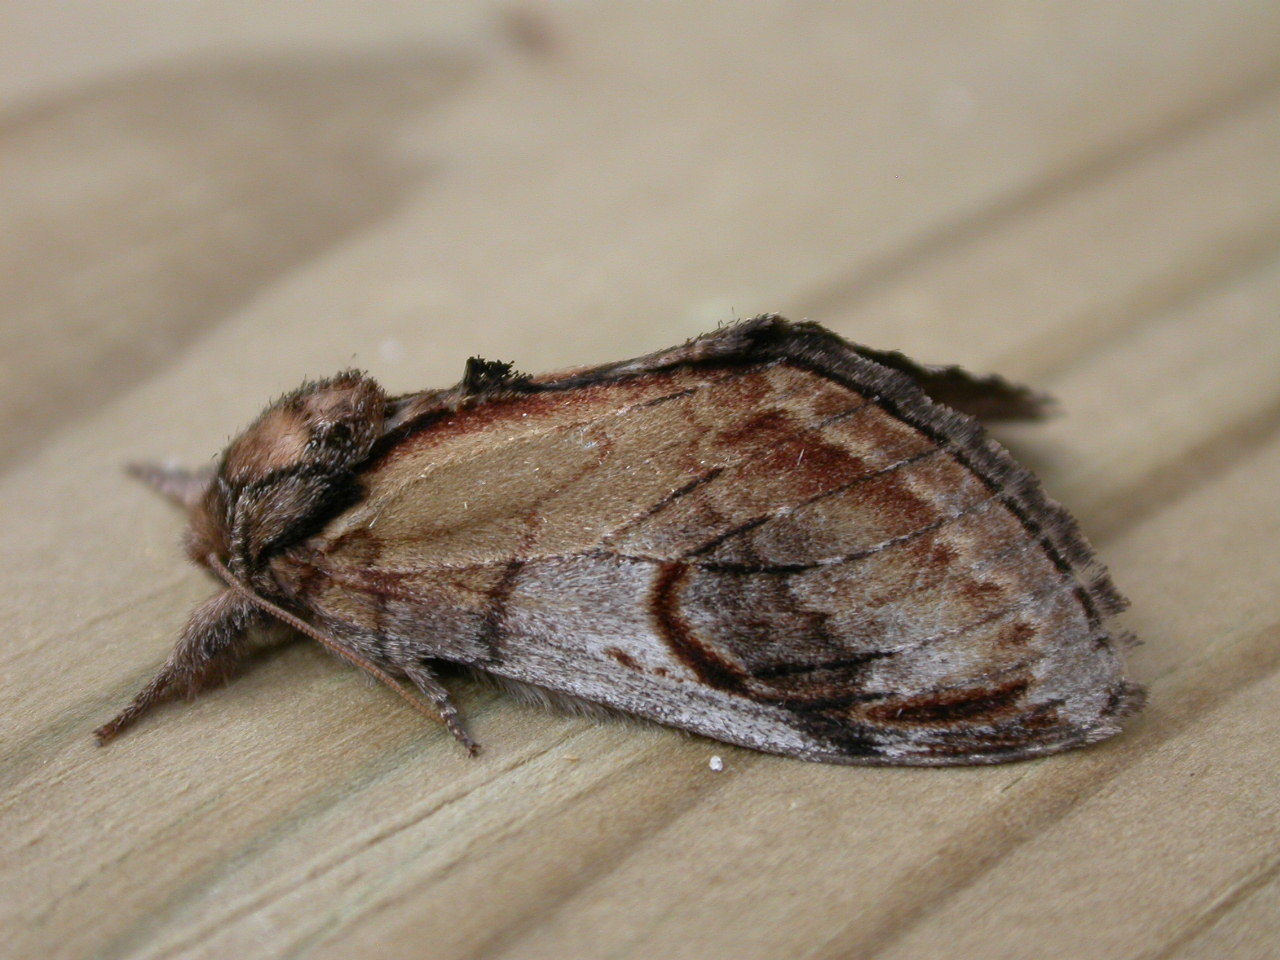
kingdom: Animalia
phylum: Arthropoda
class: Insecta
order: Lepidoptera
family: Notodontidae
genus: Notodonta
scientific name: Notodonta ziczac
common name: Pebble prominent
